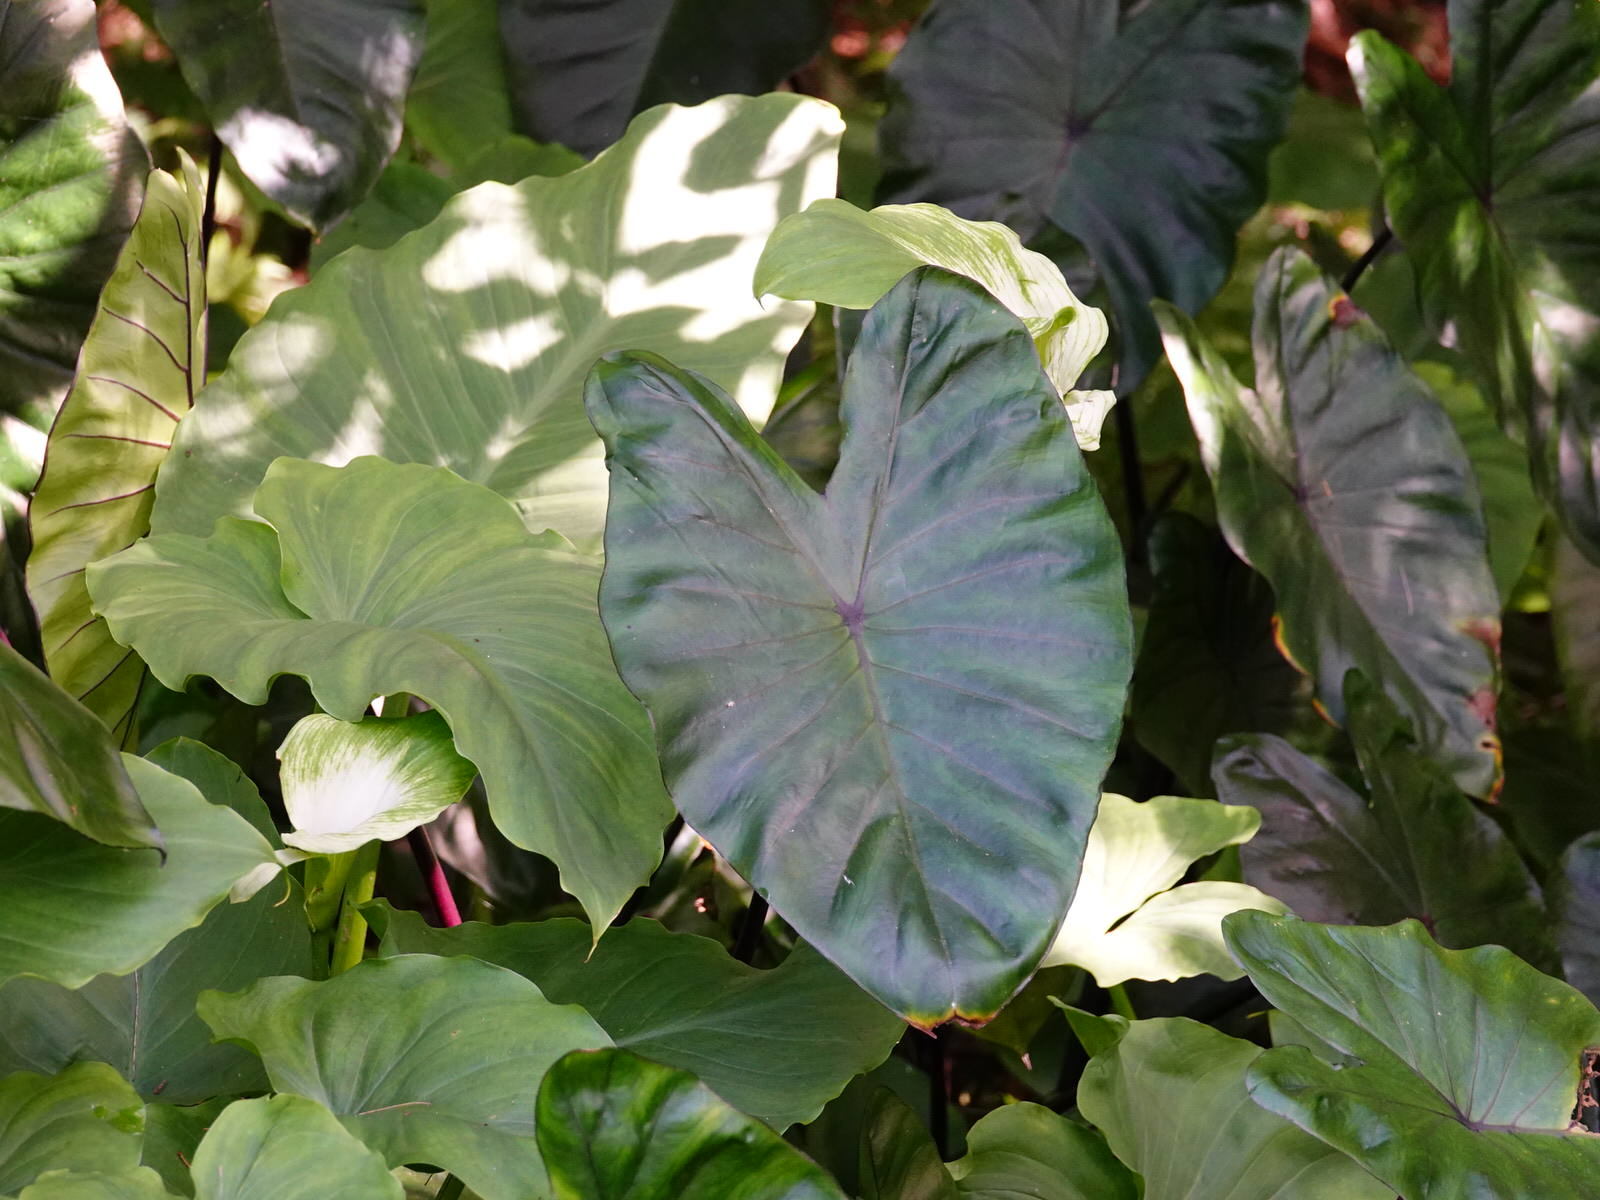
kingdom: Plantae
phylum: Tracheophyta
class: Liliopsida
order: Alismatales
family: Araceae
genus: Colocasia
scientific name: Colocasia esculenta
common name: Taro
